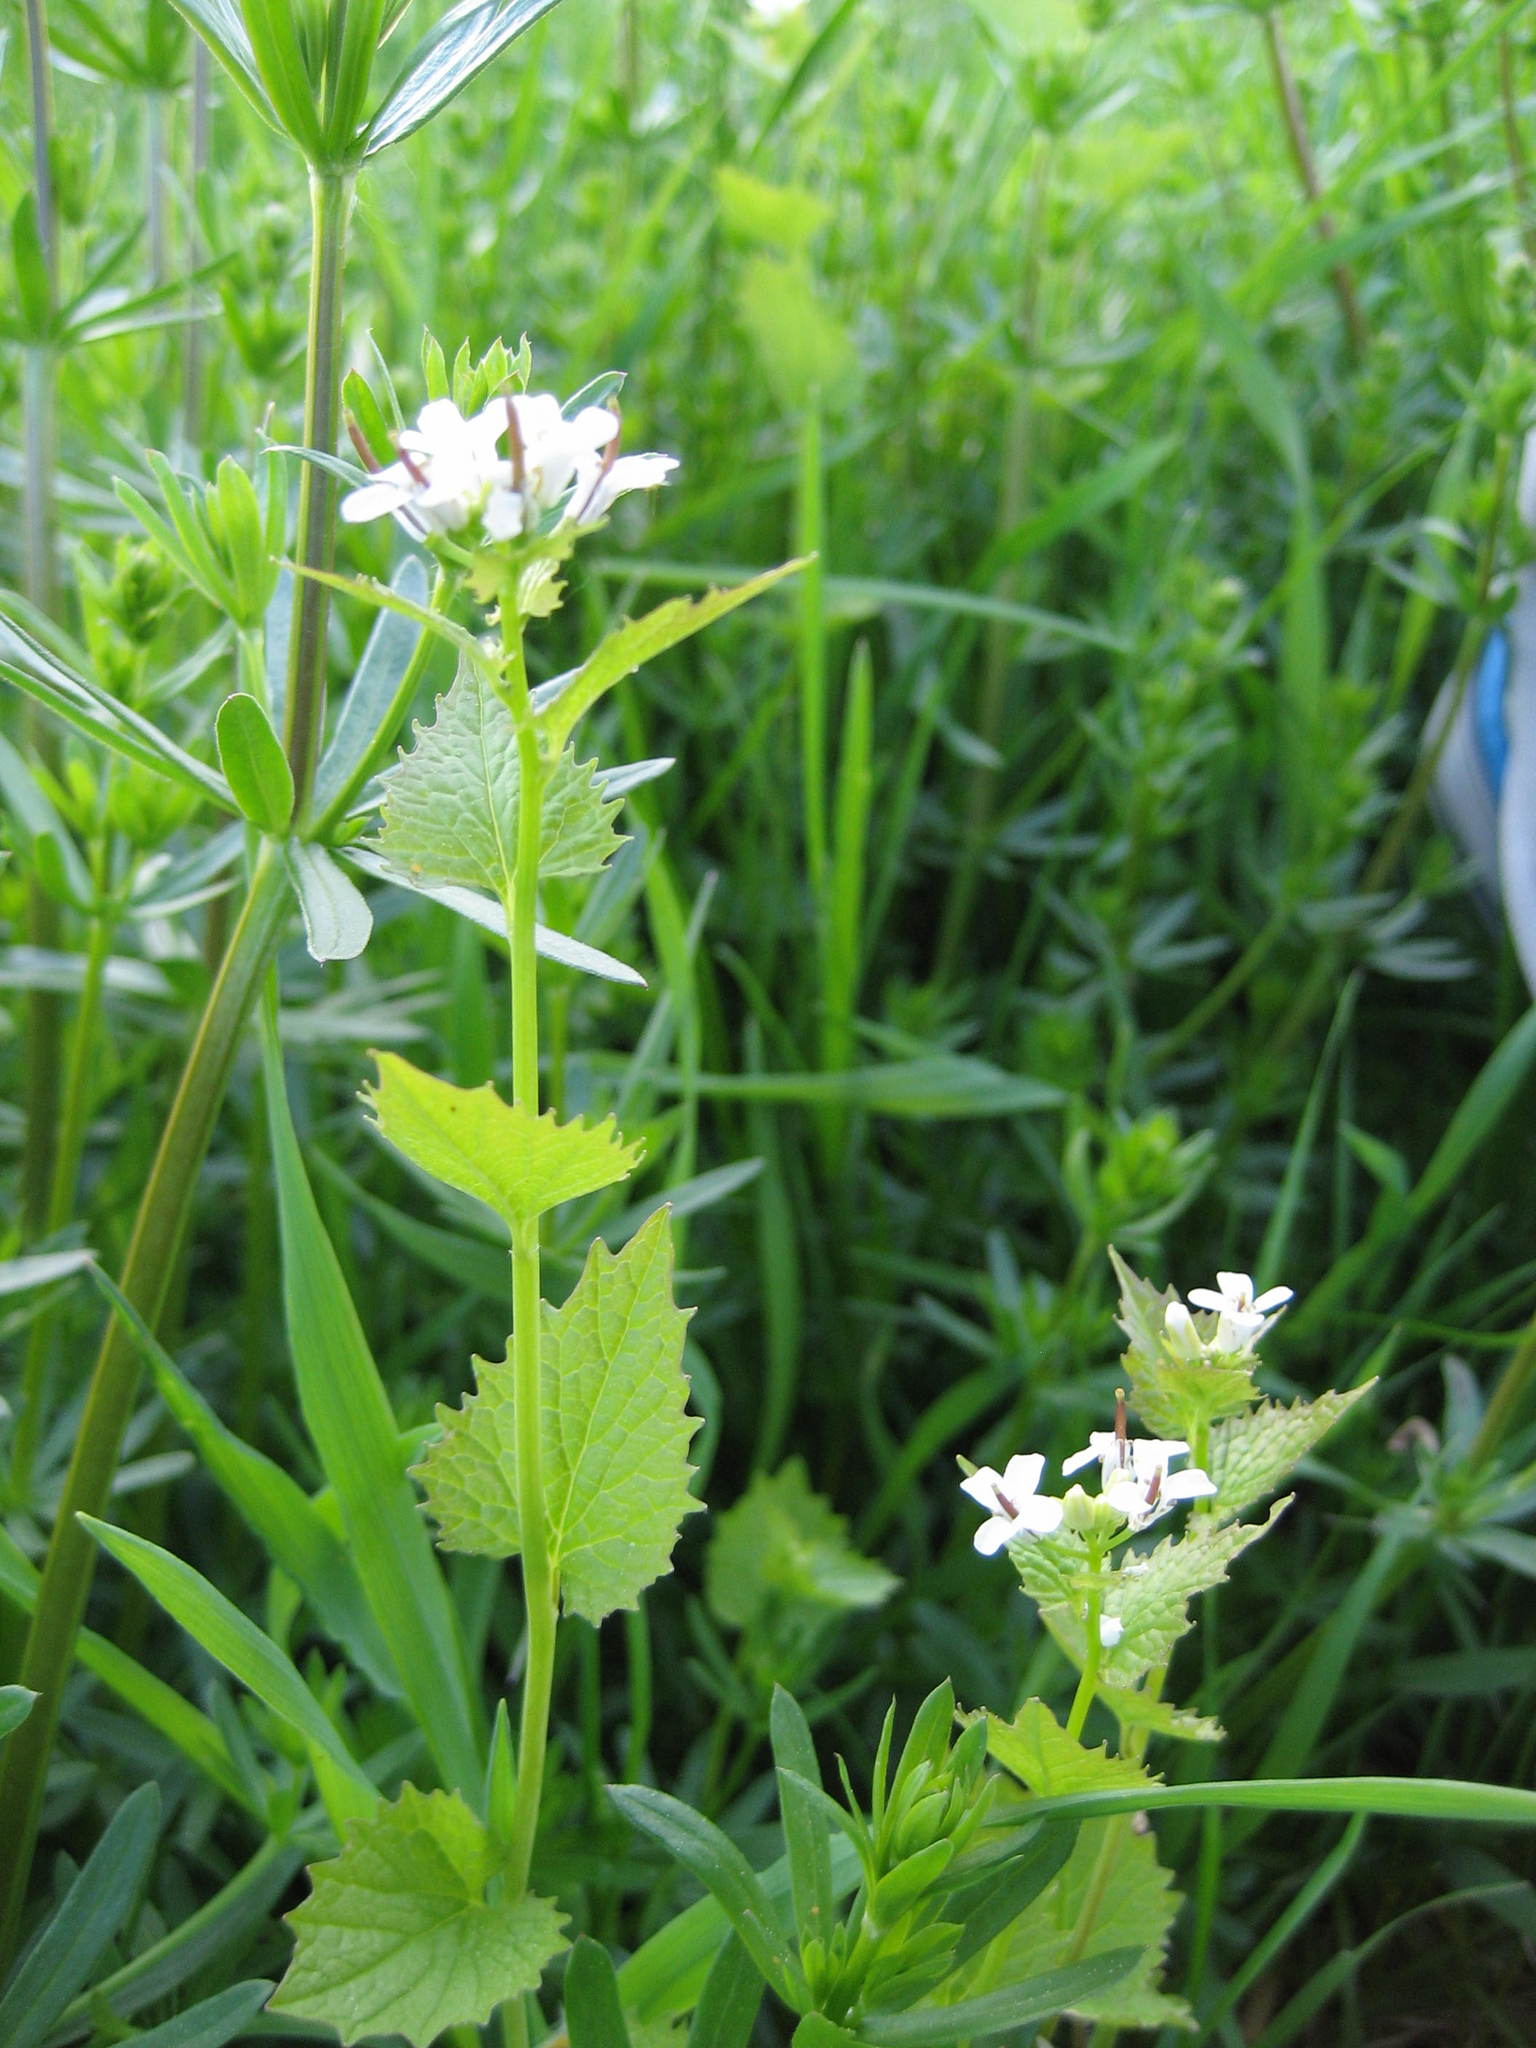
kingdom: Plantae
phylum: Tracheophyta
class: Magnoliopsida
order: Brassicales
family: Brassicaceae
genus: Alliaria
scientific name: Alliaria petiolata
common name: Garlic mustard
